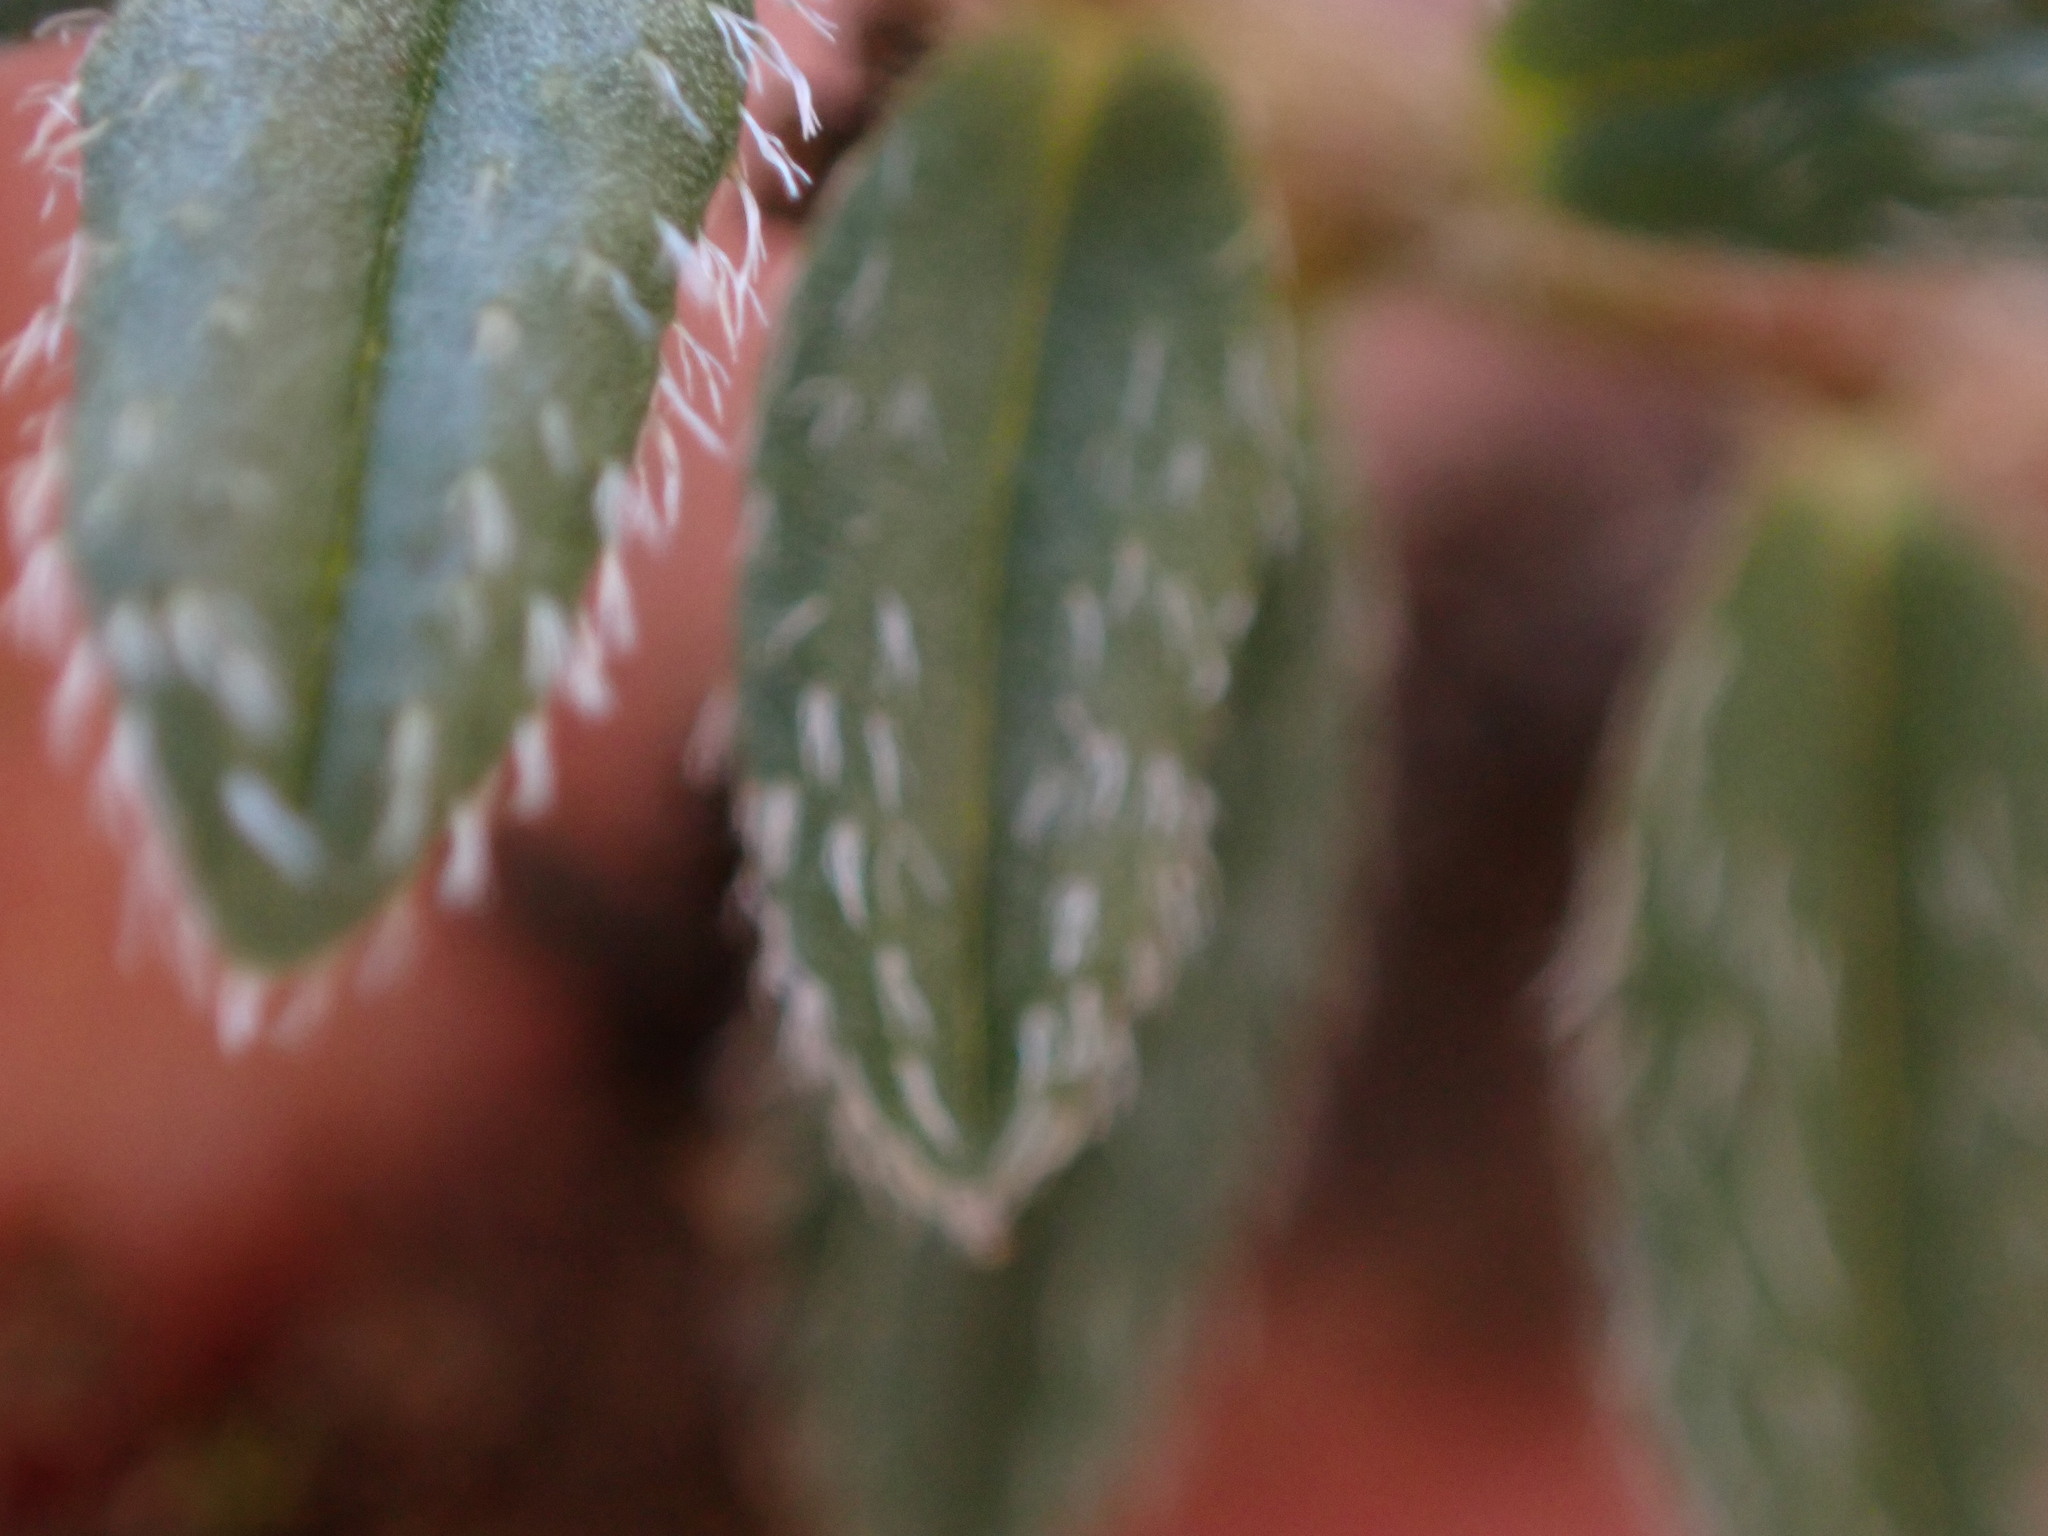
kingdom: Plantae
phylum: Tracheophyta
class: Magnoliopsida
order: Malvales
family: Cistaceae
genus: Helianthemum
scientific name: Helianthemum oelandicum
